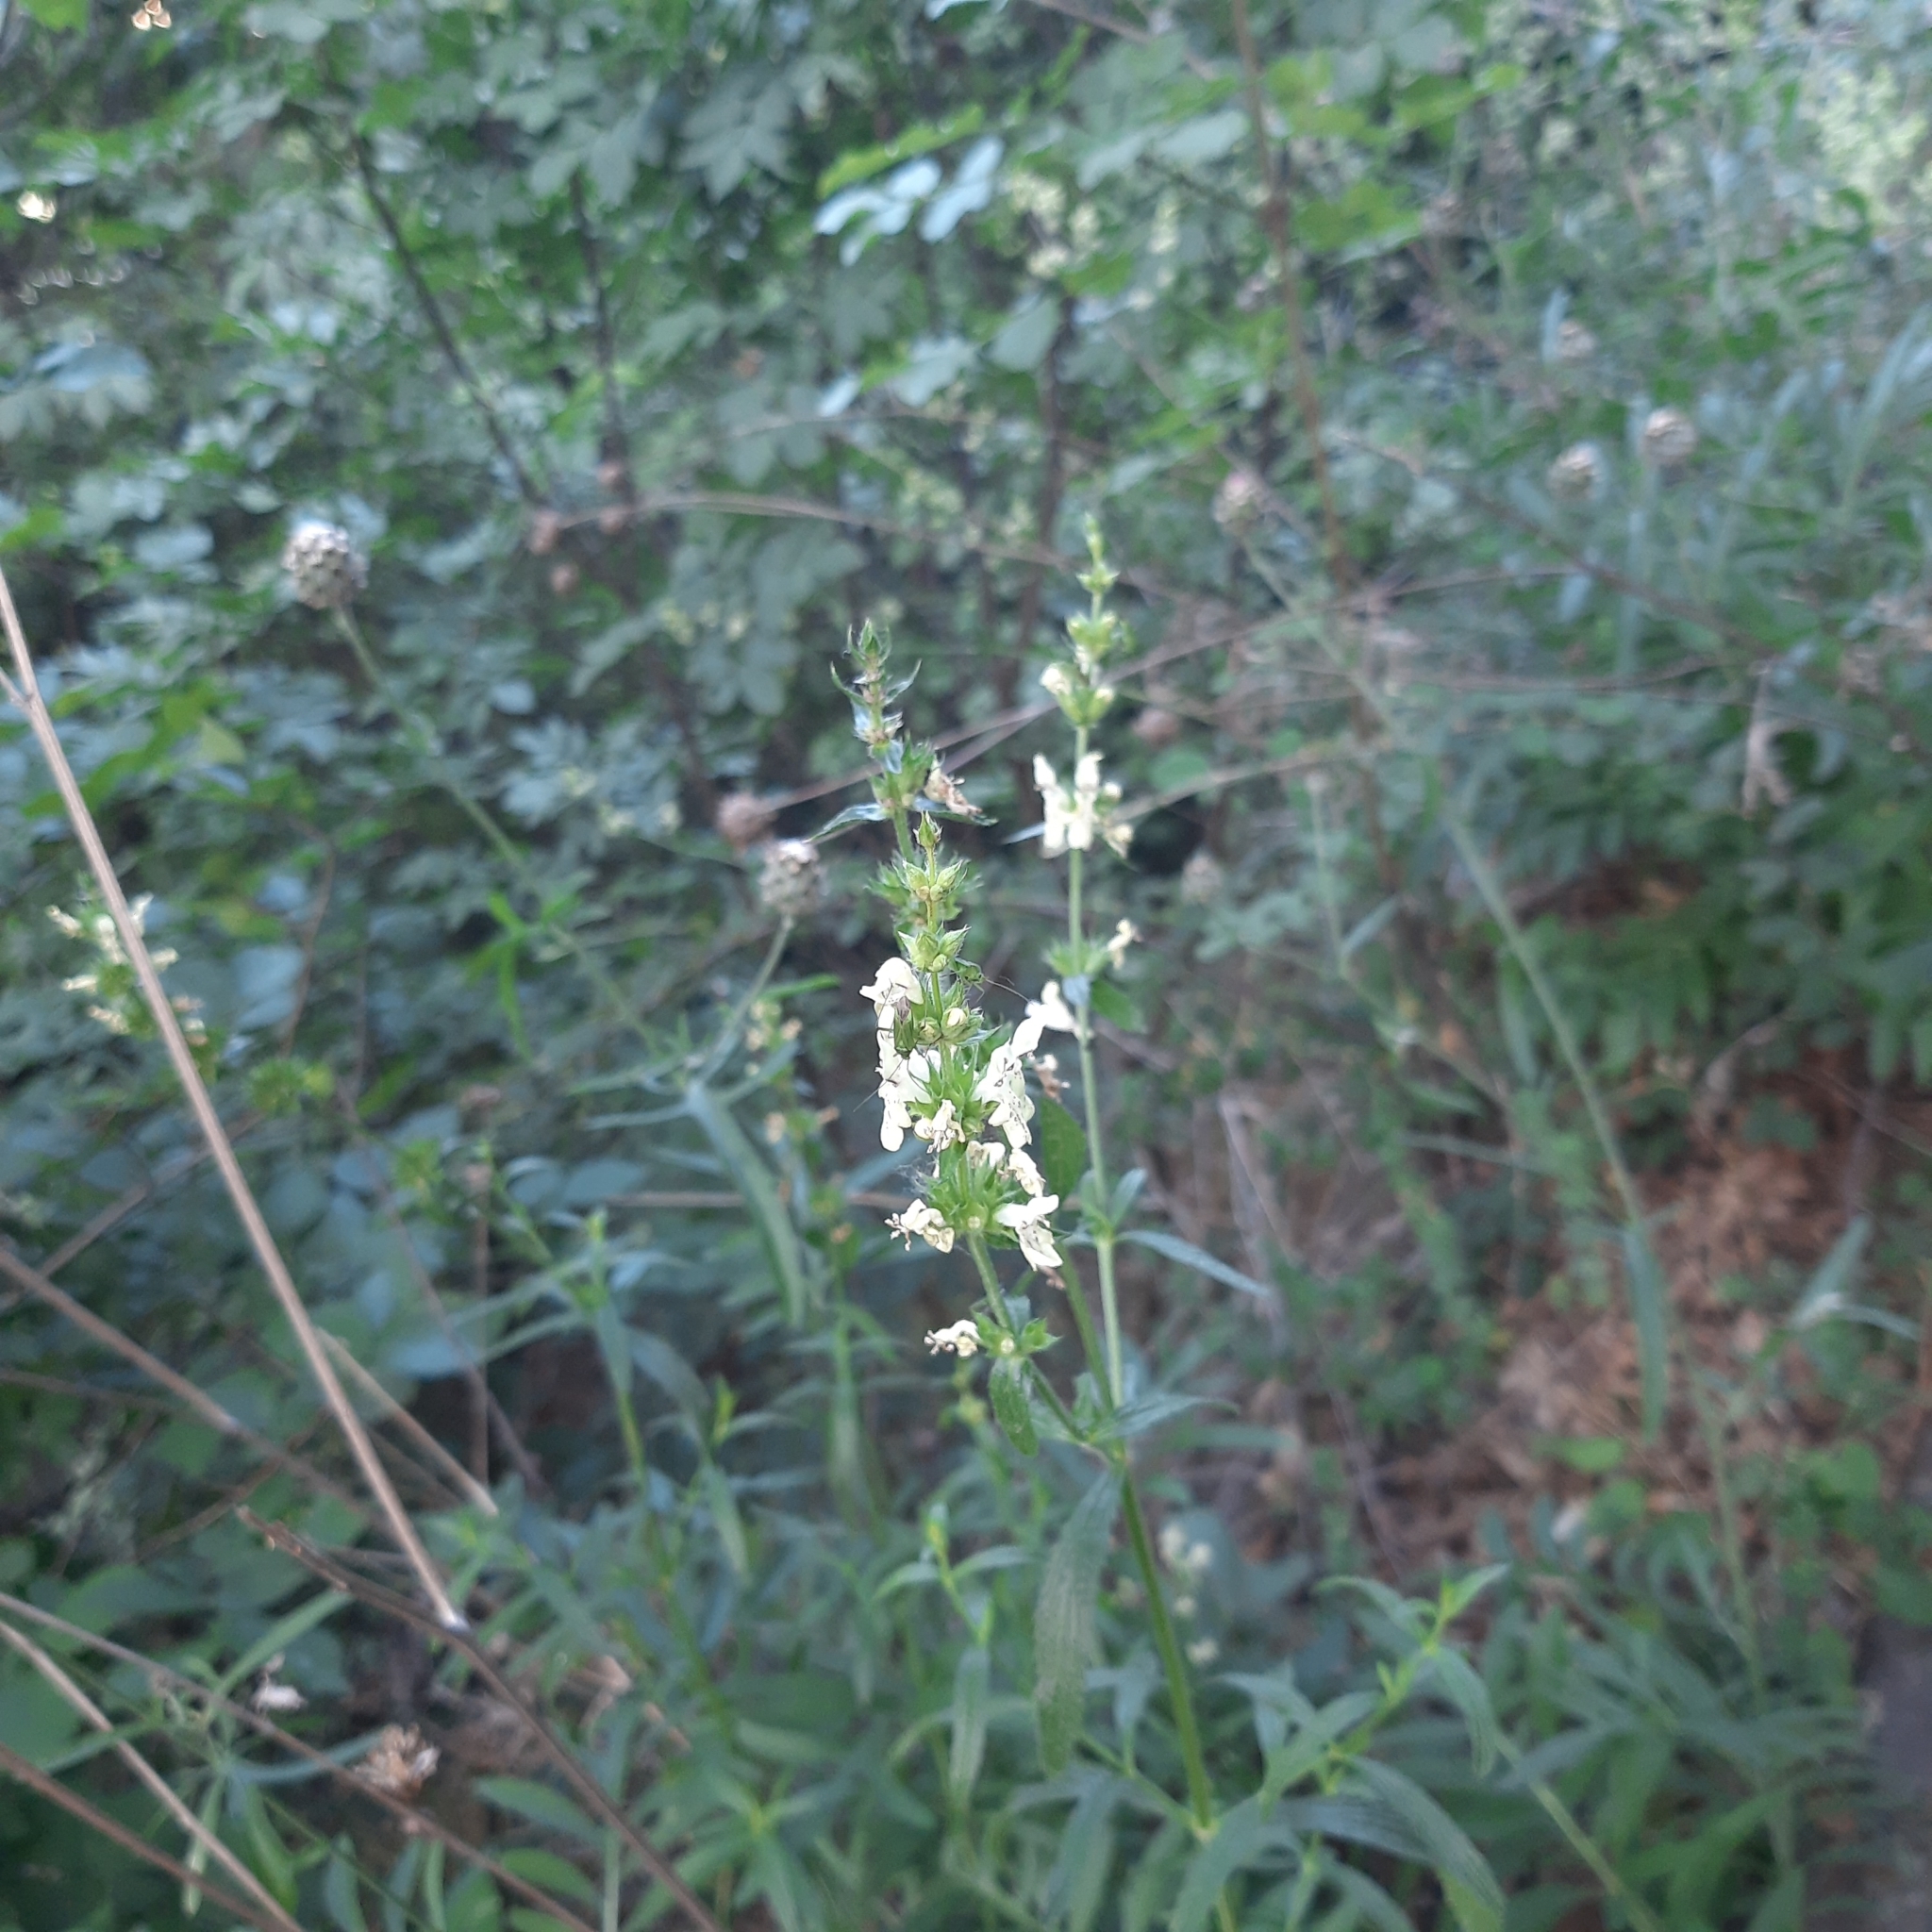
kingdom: Plantae
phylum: Tracheophyta
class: Magnoliopsida
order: Lamiales
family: Lamiaceae
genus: Stachys
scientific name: Stachys recta
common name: Perennial yellow-woundwort
